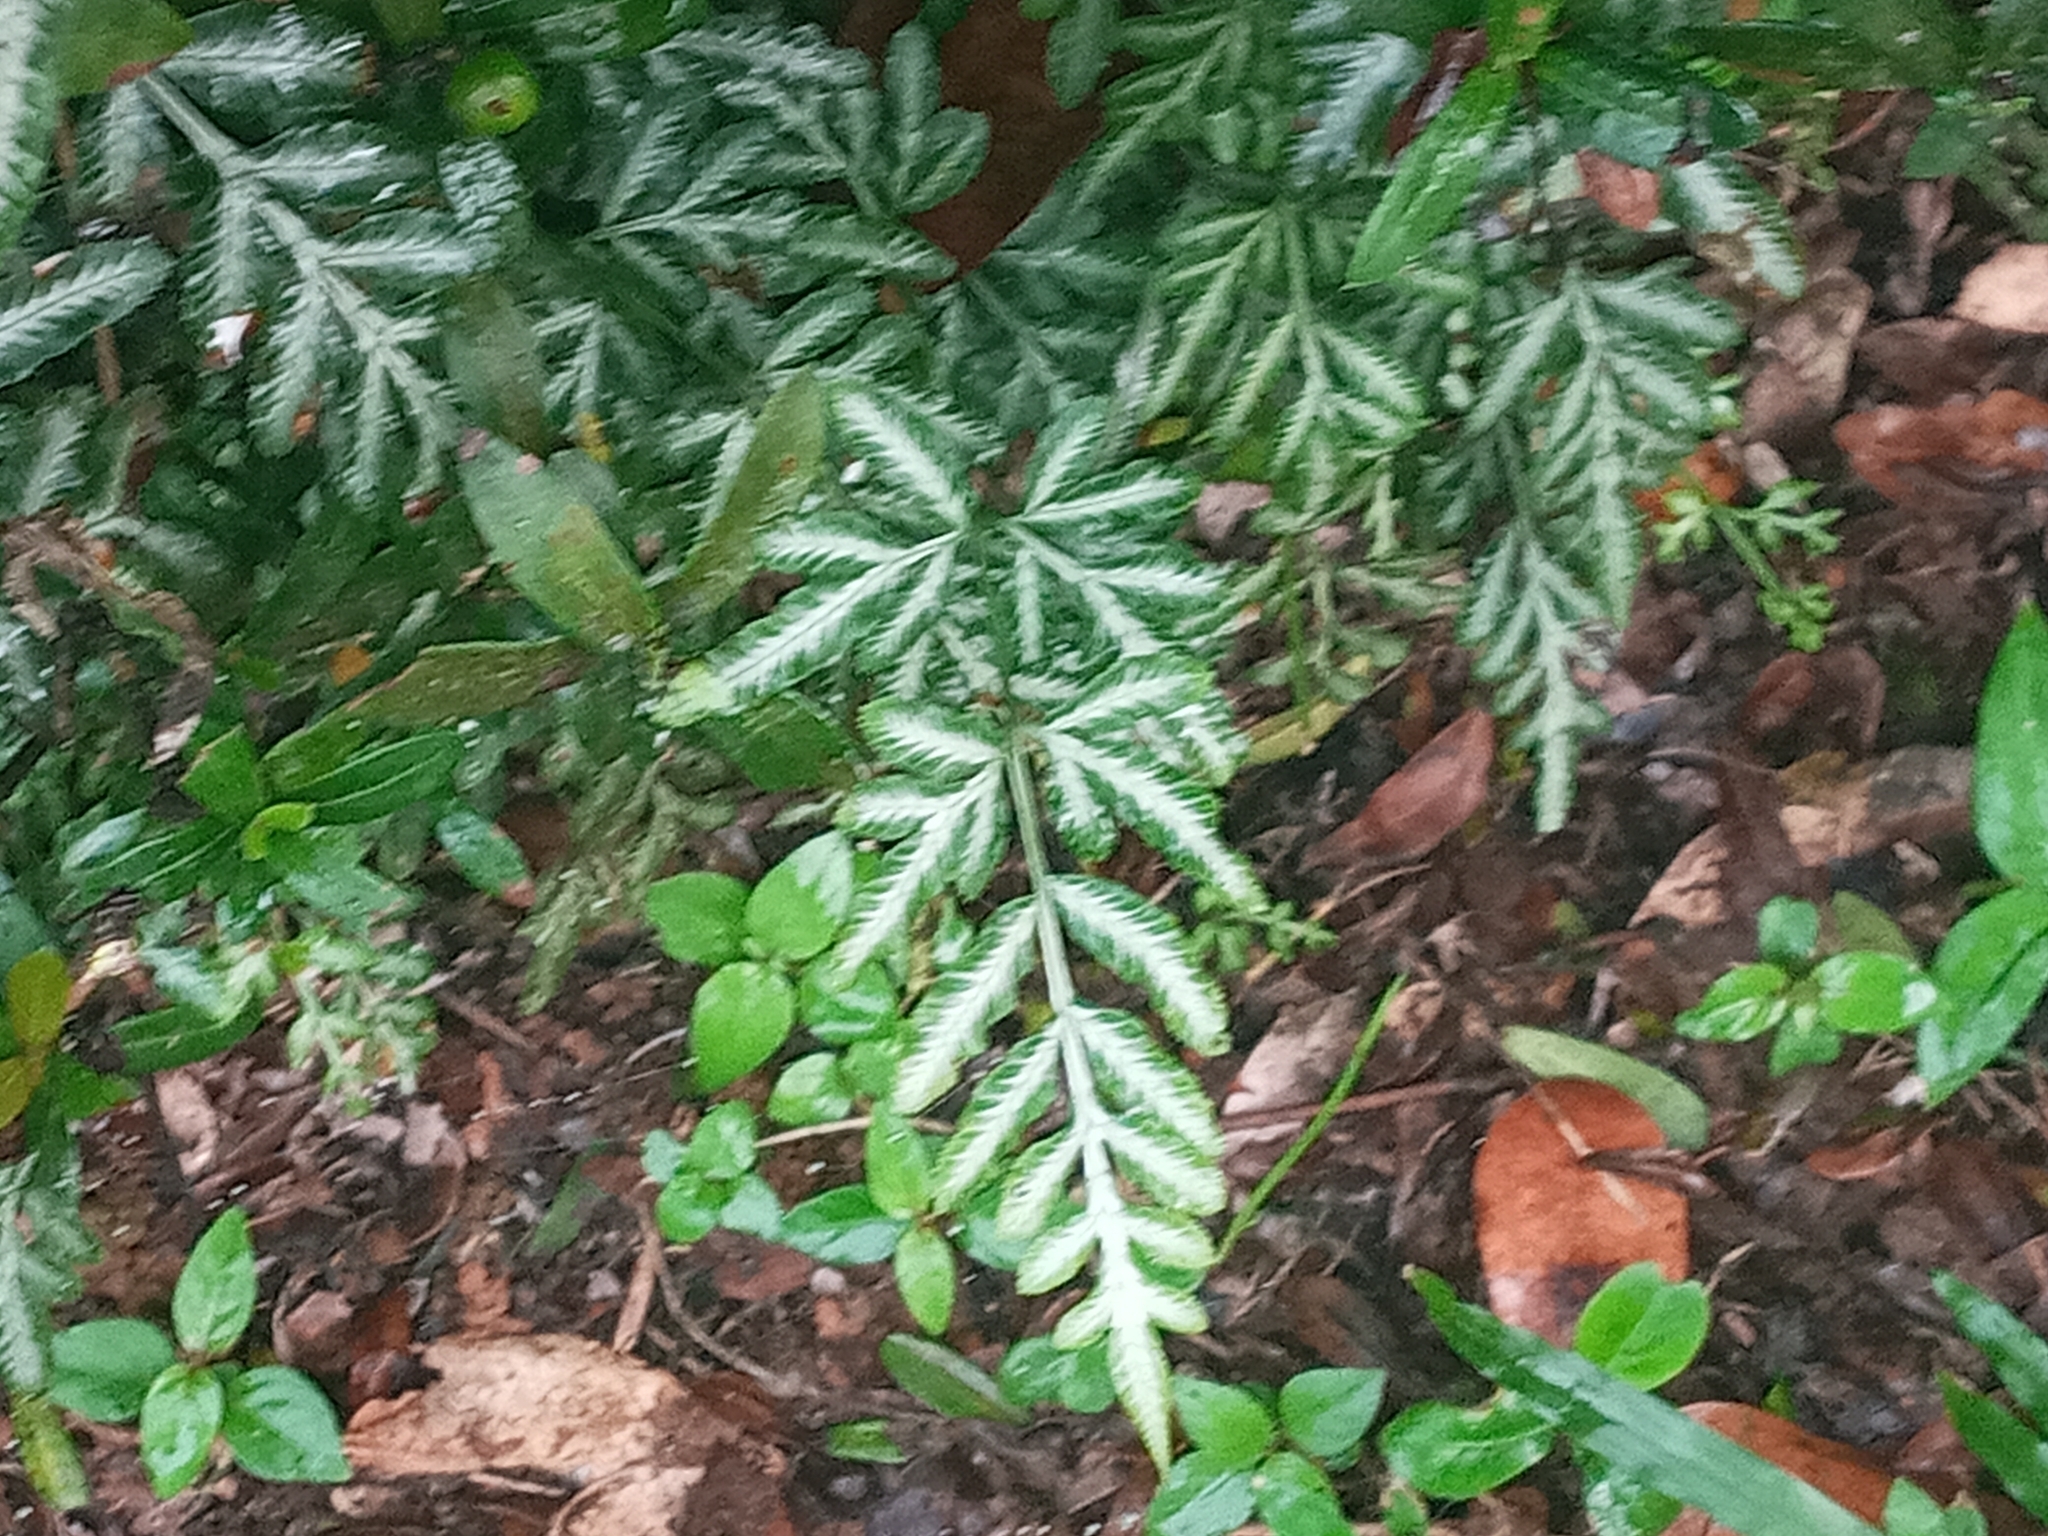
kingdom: Plantae
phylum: Tracheophyta
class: Polypodiopsida
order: Polypodiales
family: Pteridaceae
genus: Pteris
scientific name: Pteris ensiformis
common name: Sword brake
